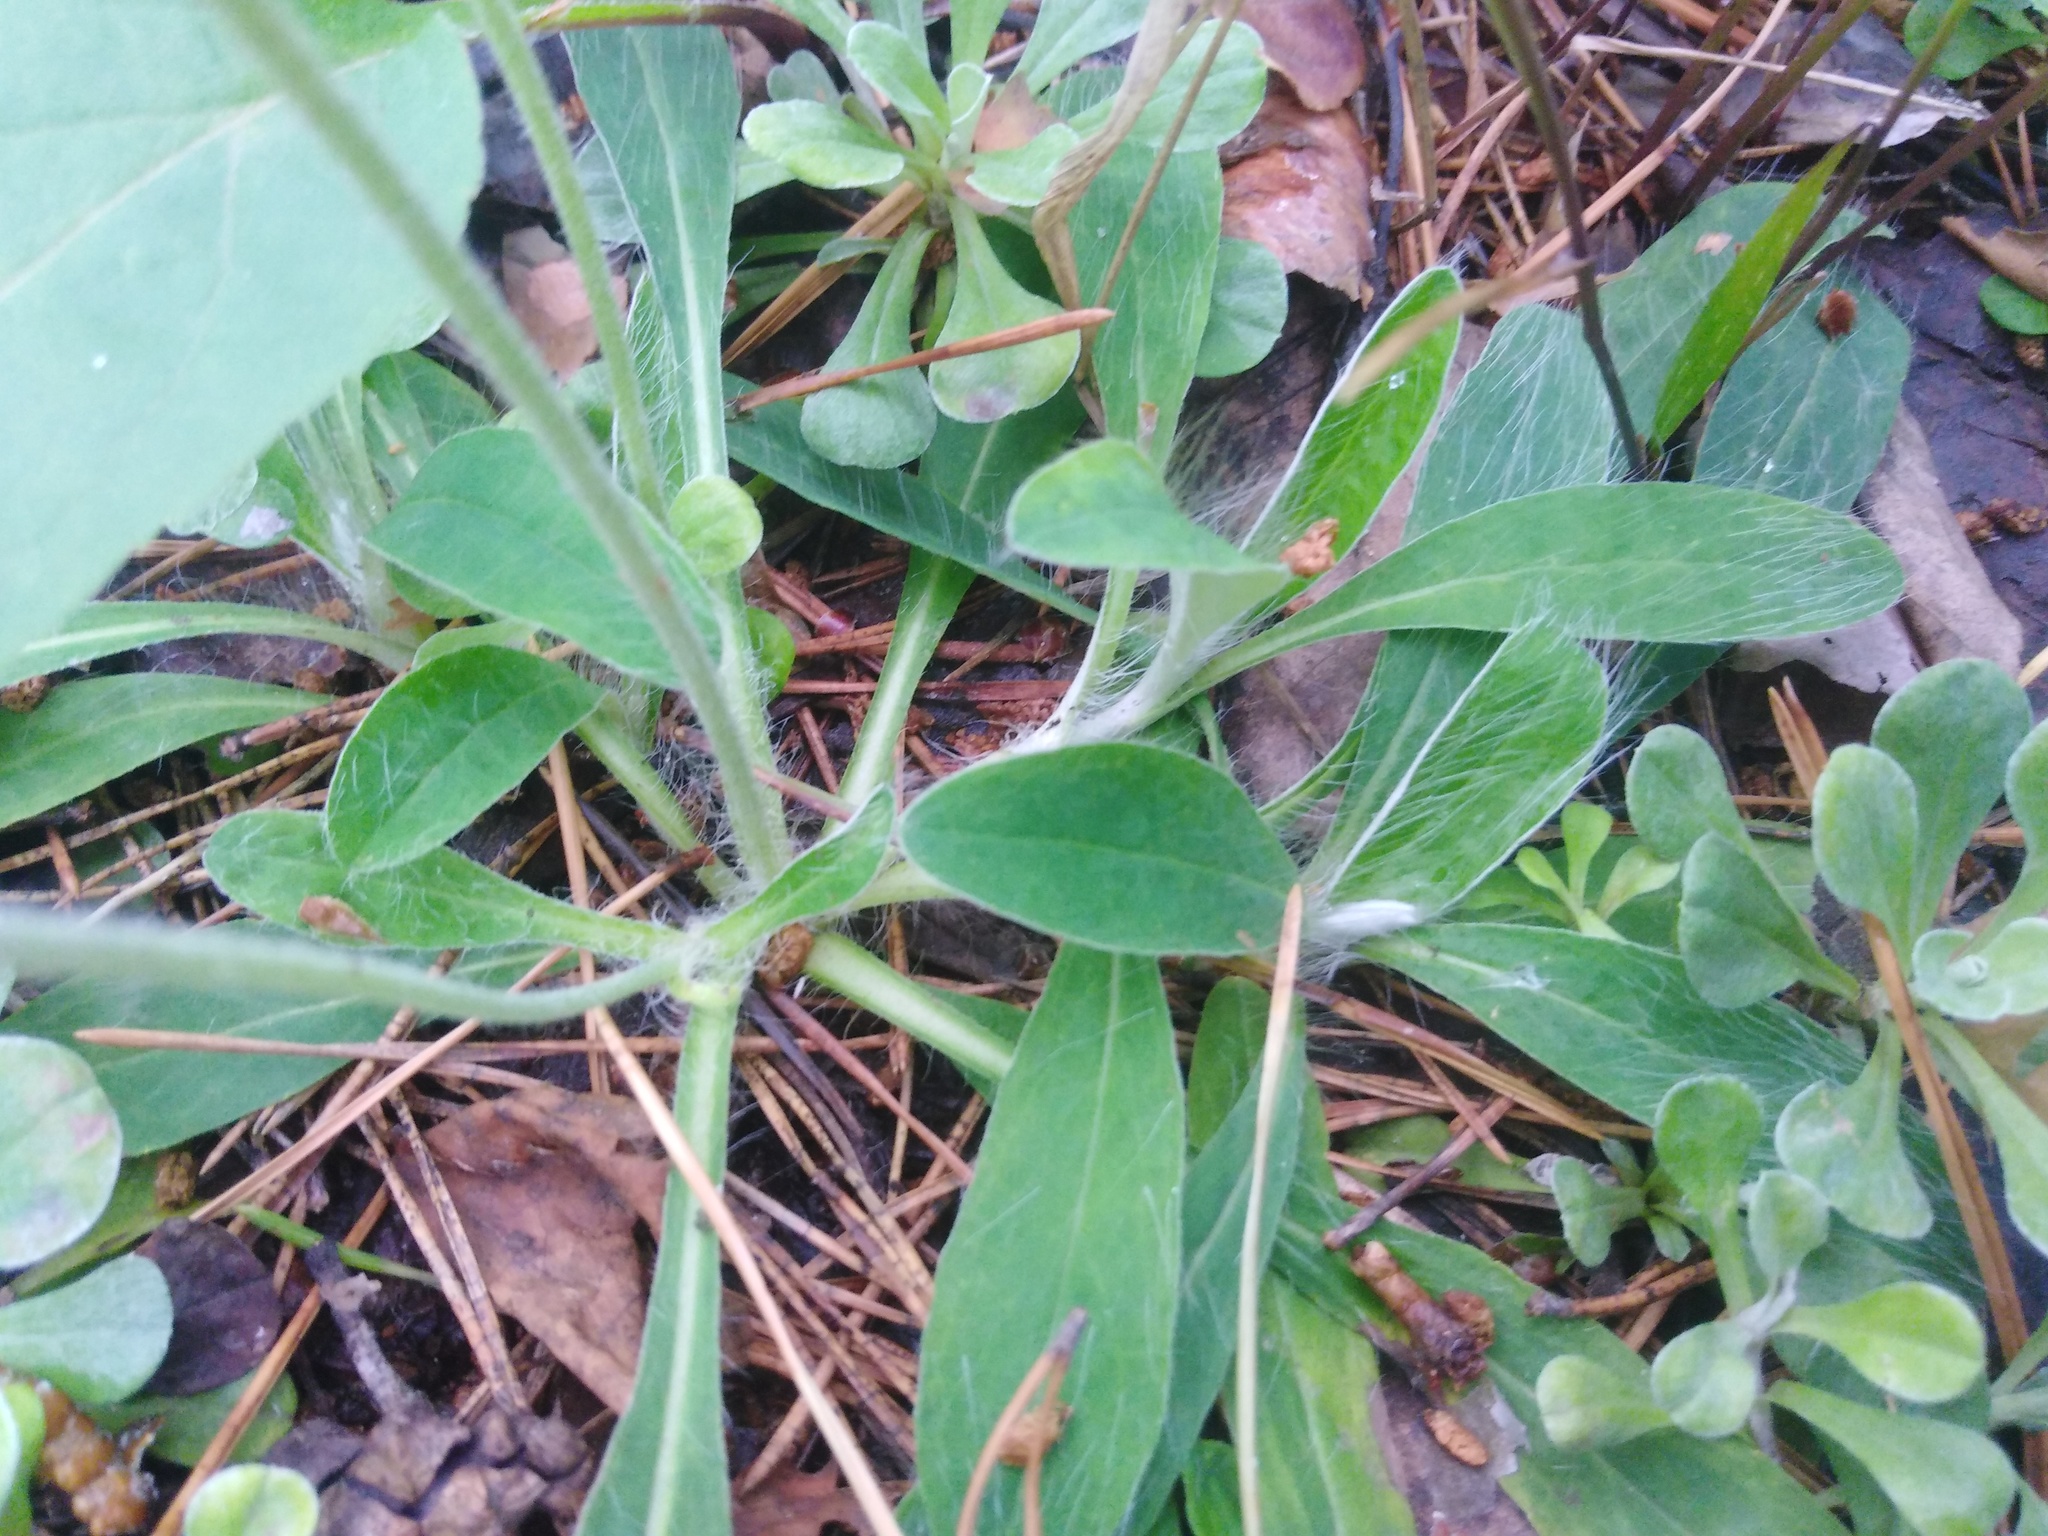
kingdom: Plantae
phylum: Tracheophyta
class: Magnoliopsida
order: Asterales
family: Asteraceae
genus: Pilosella
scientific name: Pilosella officinarum
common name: Mouse-ear hawkweed
